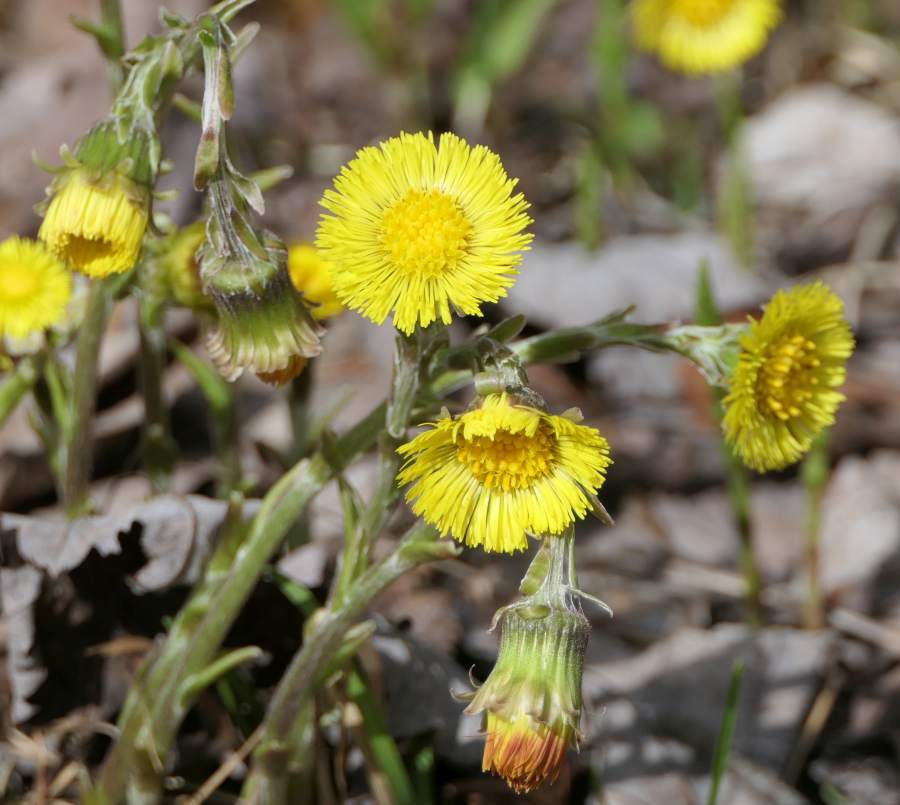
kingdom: Plantae
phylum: Tracheophyta
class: Magnoliopsida
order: Asterales
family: Asteraceae
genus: Tussilago
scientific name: Tussilago farfara
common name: Coltsfoot
